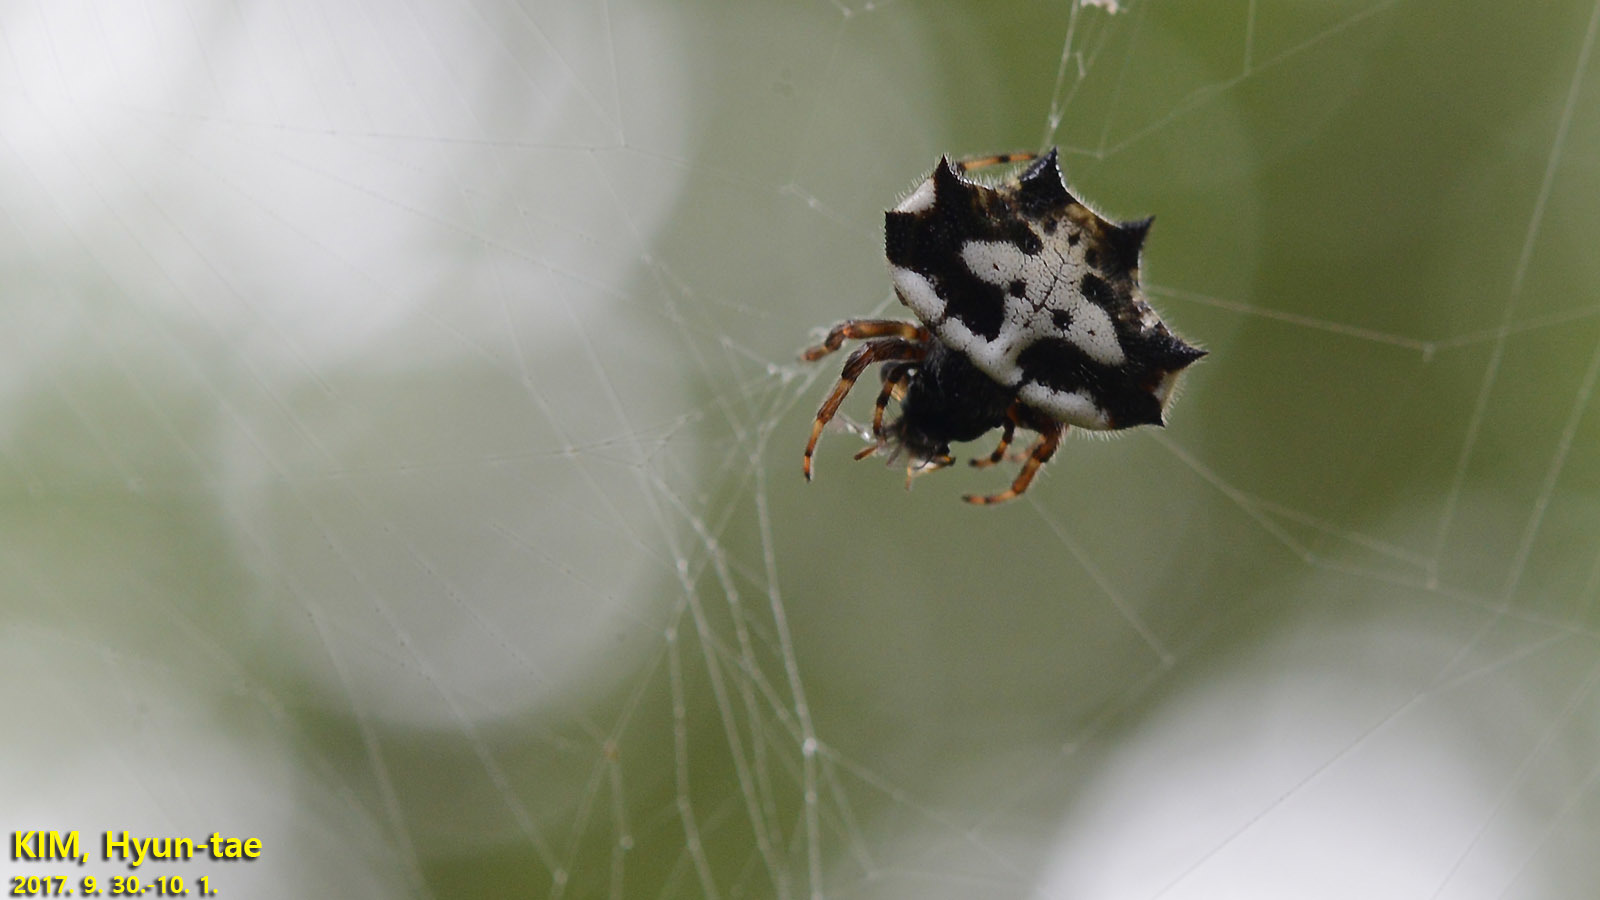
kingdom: Animalia
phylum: Arthropoda
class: Arachnida
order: Araneae
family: Araneidae
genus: Gasteracantha
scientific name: Gasteracantha kuhli
